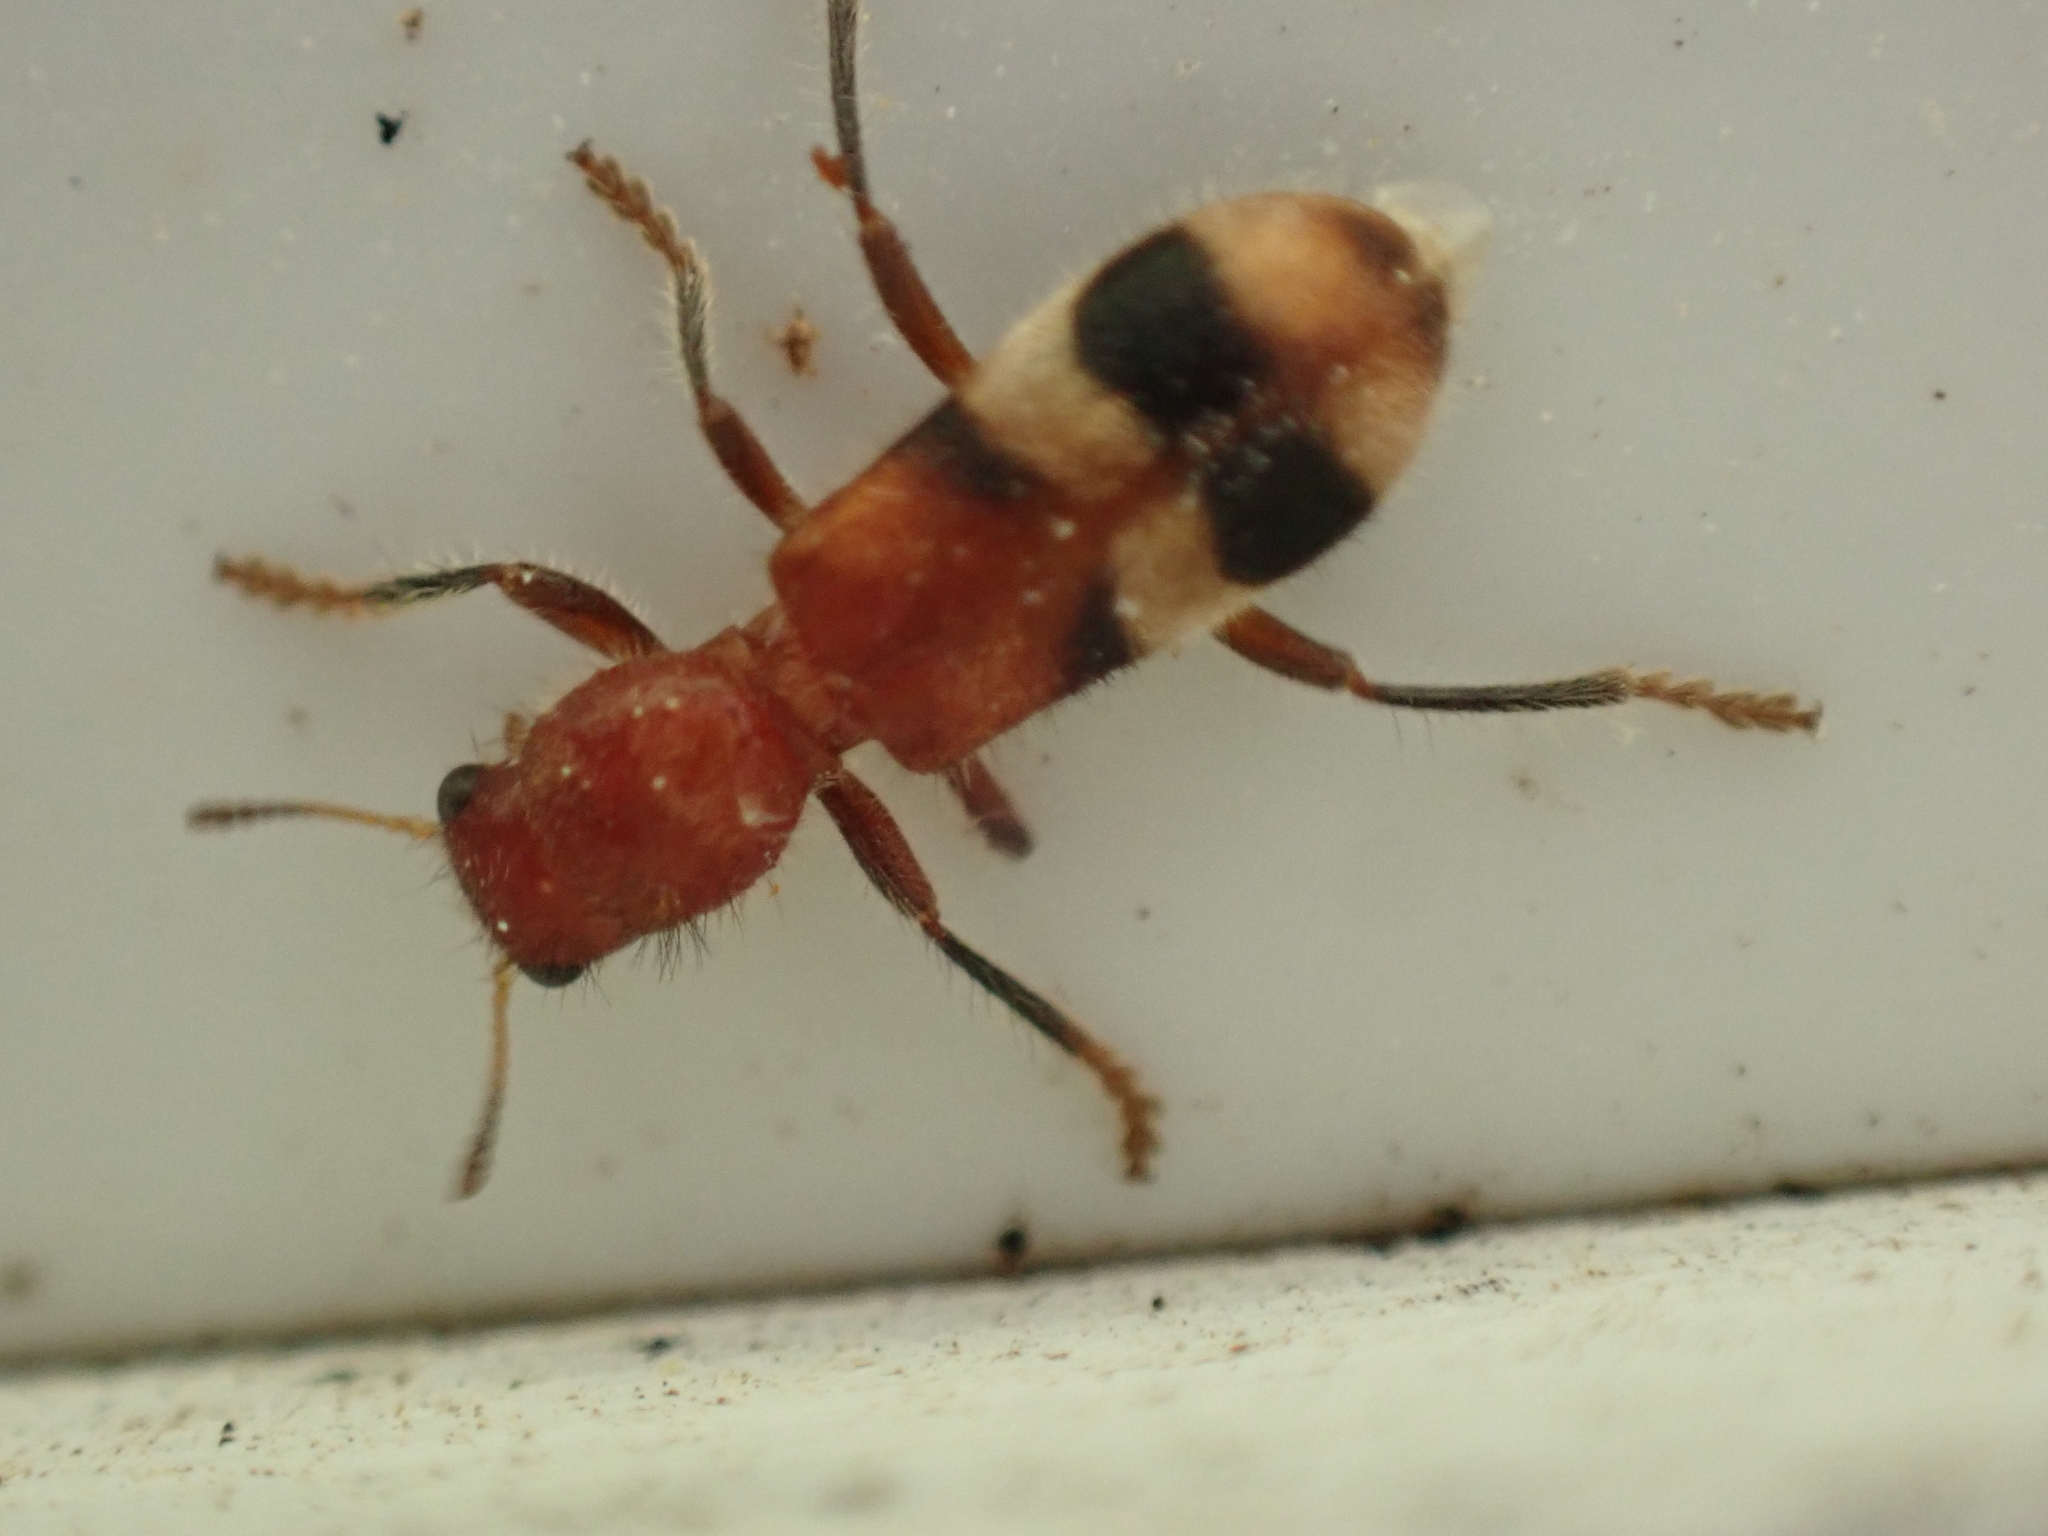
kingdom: Animalia
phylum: Arthropoda
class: Insecta
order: Coleoptera
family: Cleridae
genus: Enoclerus
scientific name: Enoclerus rosmarus
